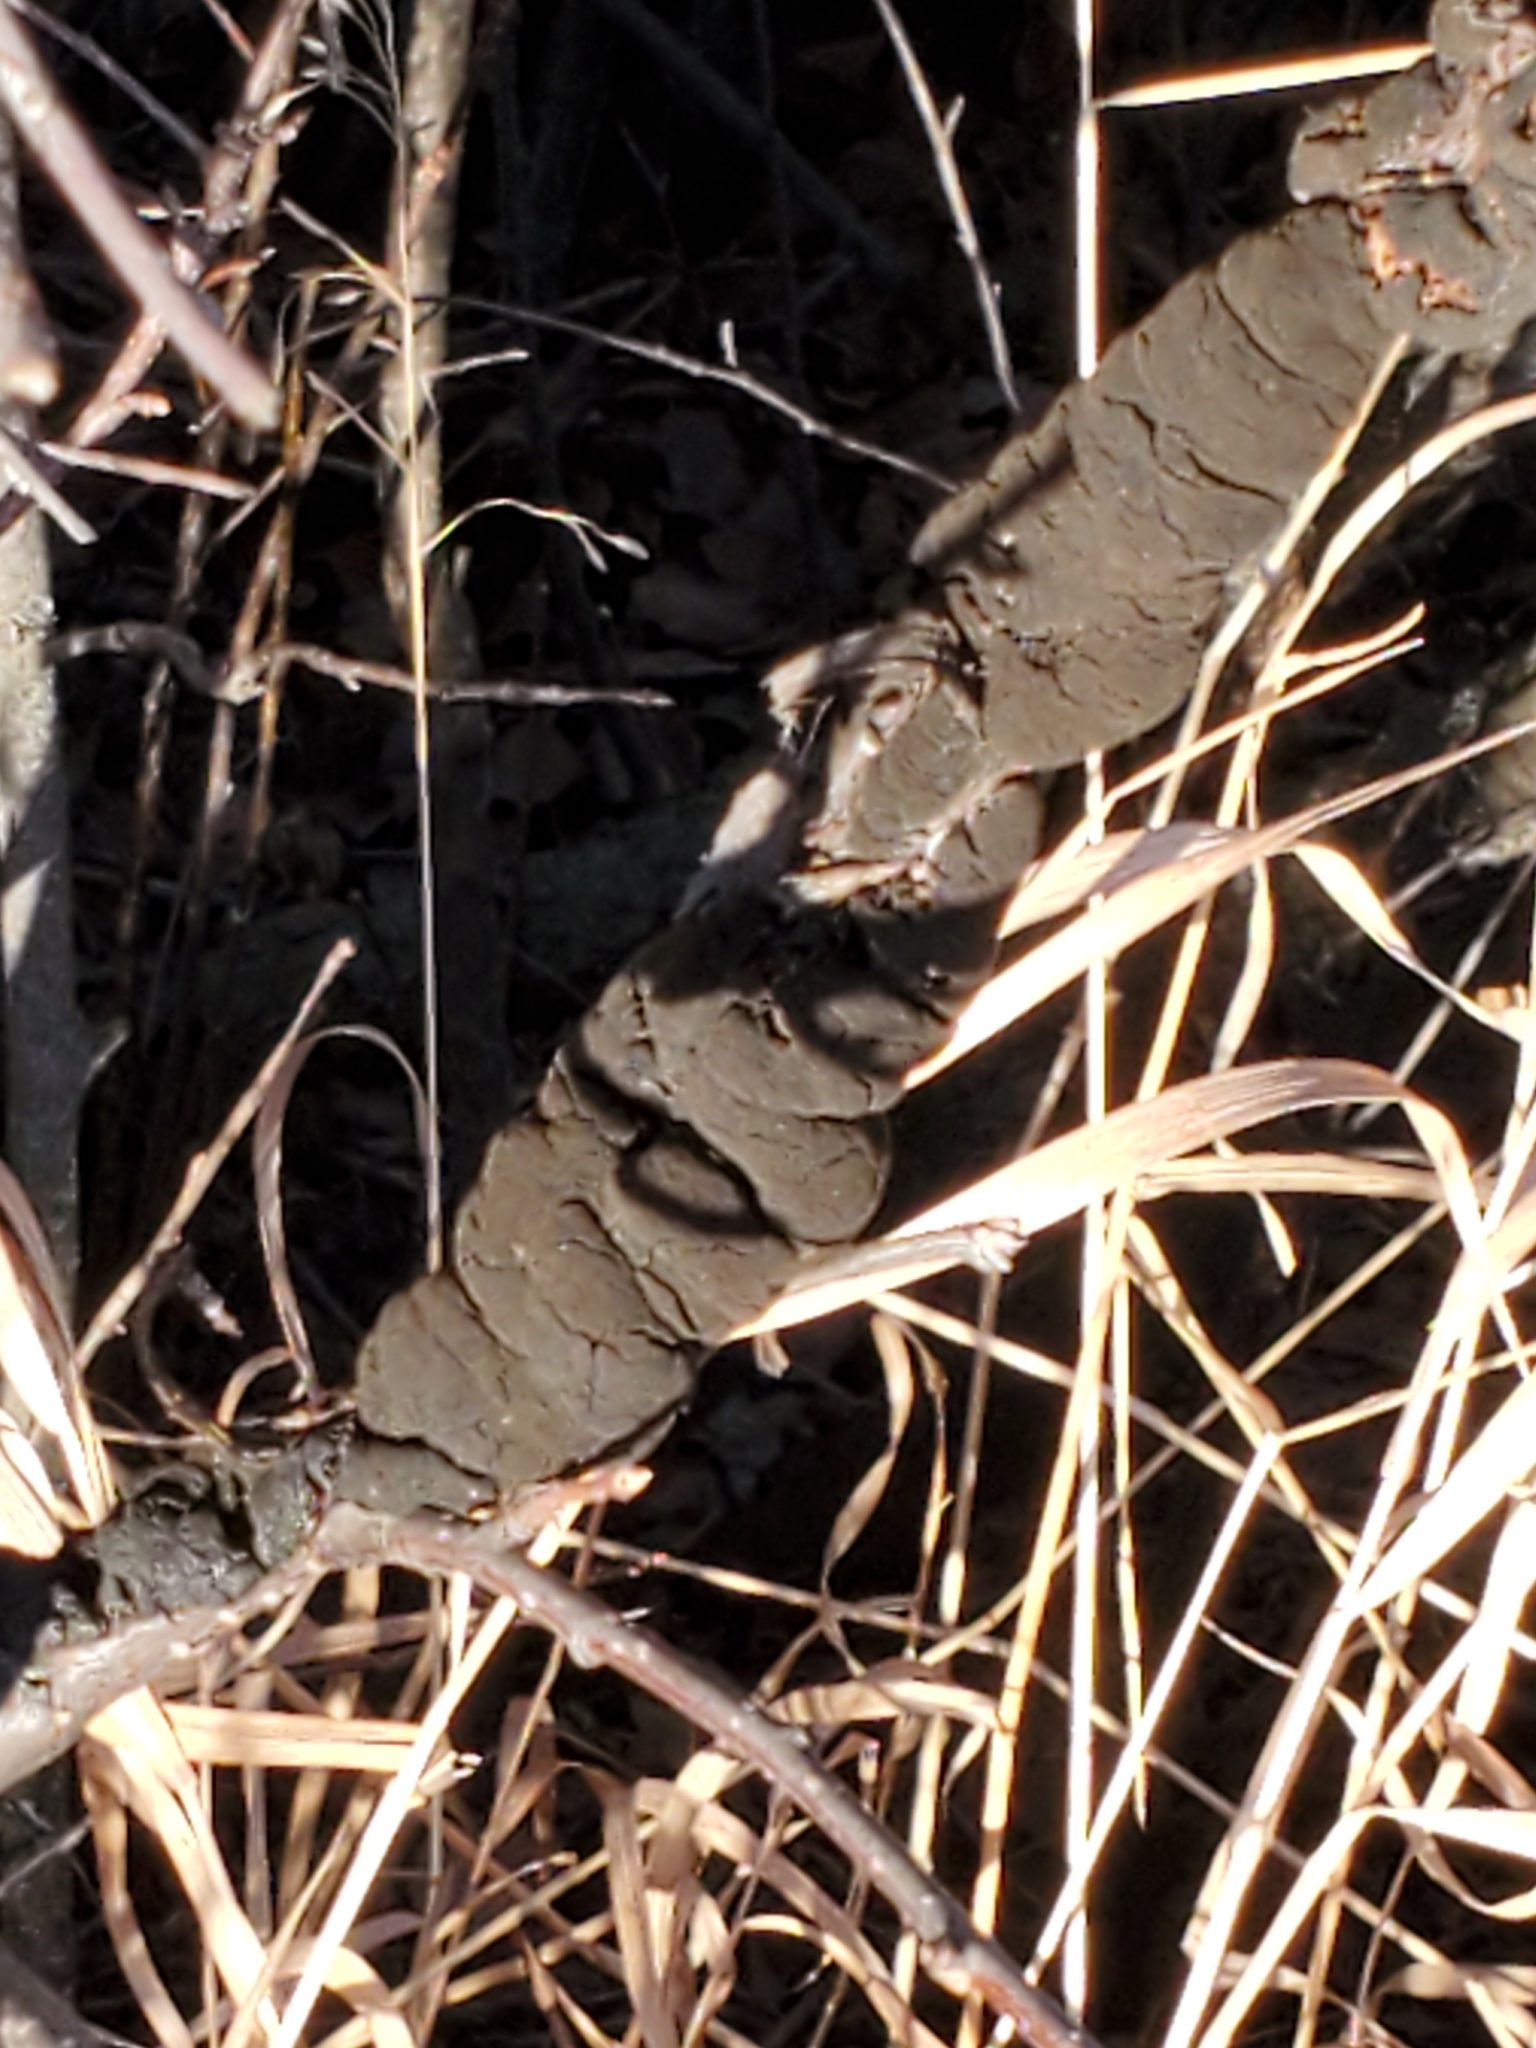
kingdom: Fungi
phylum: Ascomycota
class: Dothideomycetes
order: Venturiales
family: Venturiaceae
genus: Apiosporina
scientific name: Apiosporina morbosa
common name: Black knot
